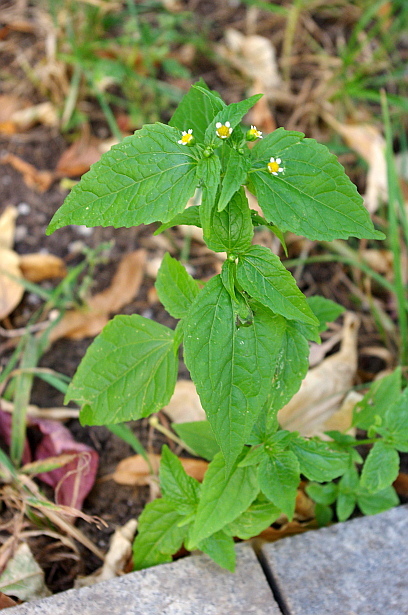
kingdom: Plantae
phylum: Tracheophyta
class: Magnoliopsida
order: Asterales
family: Asteraceae
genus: Galinsoga
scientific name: Galinsoga parviflora
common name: Gallant soldier
